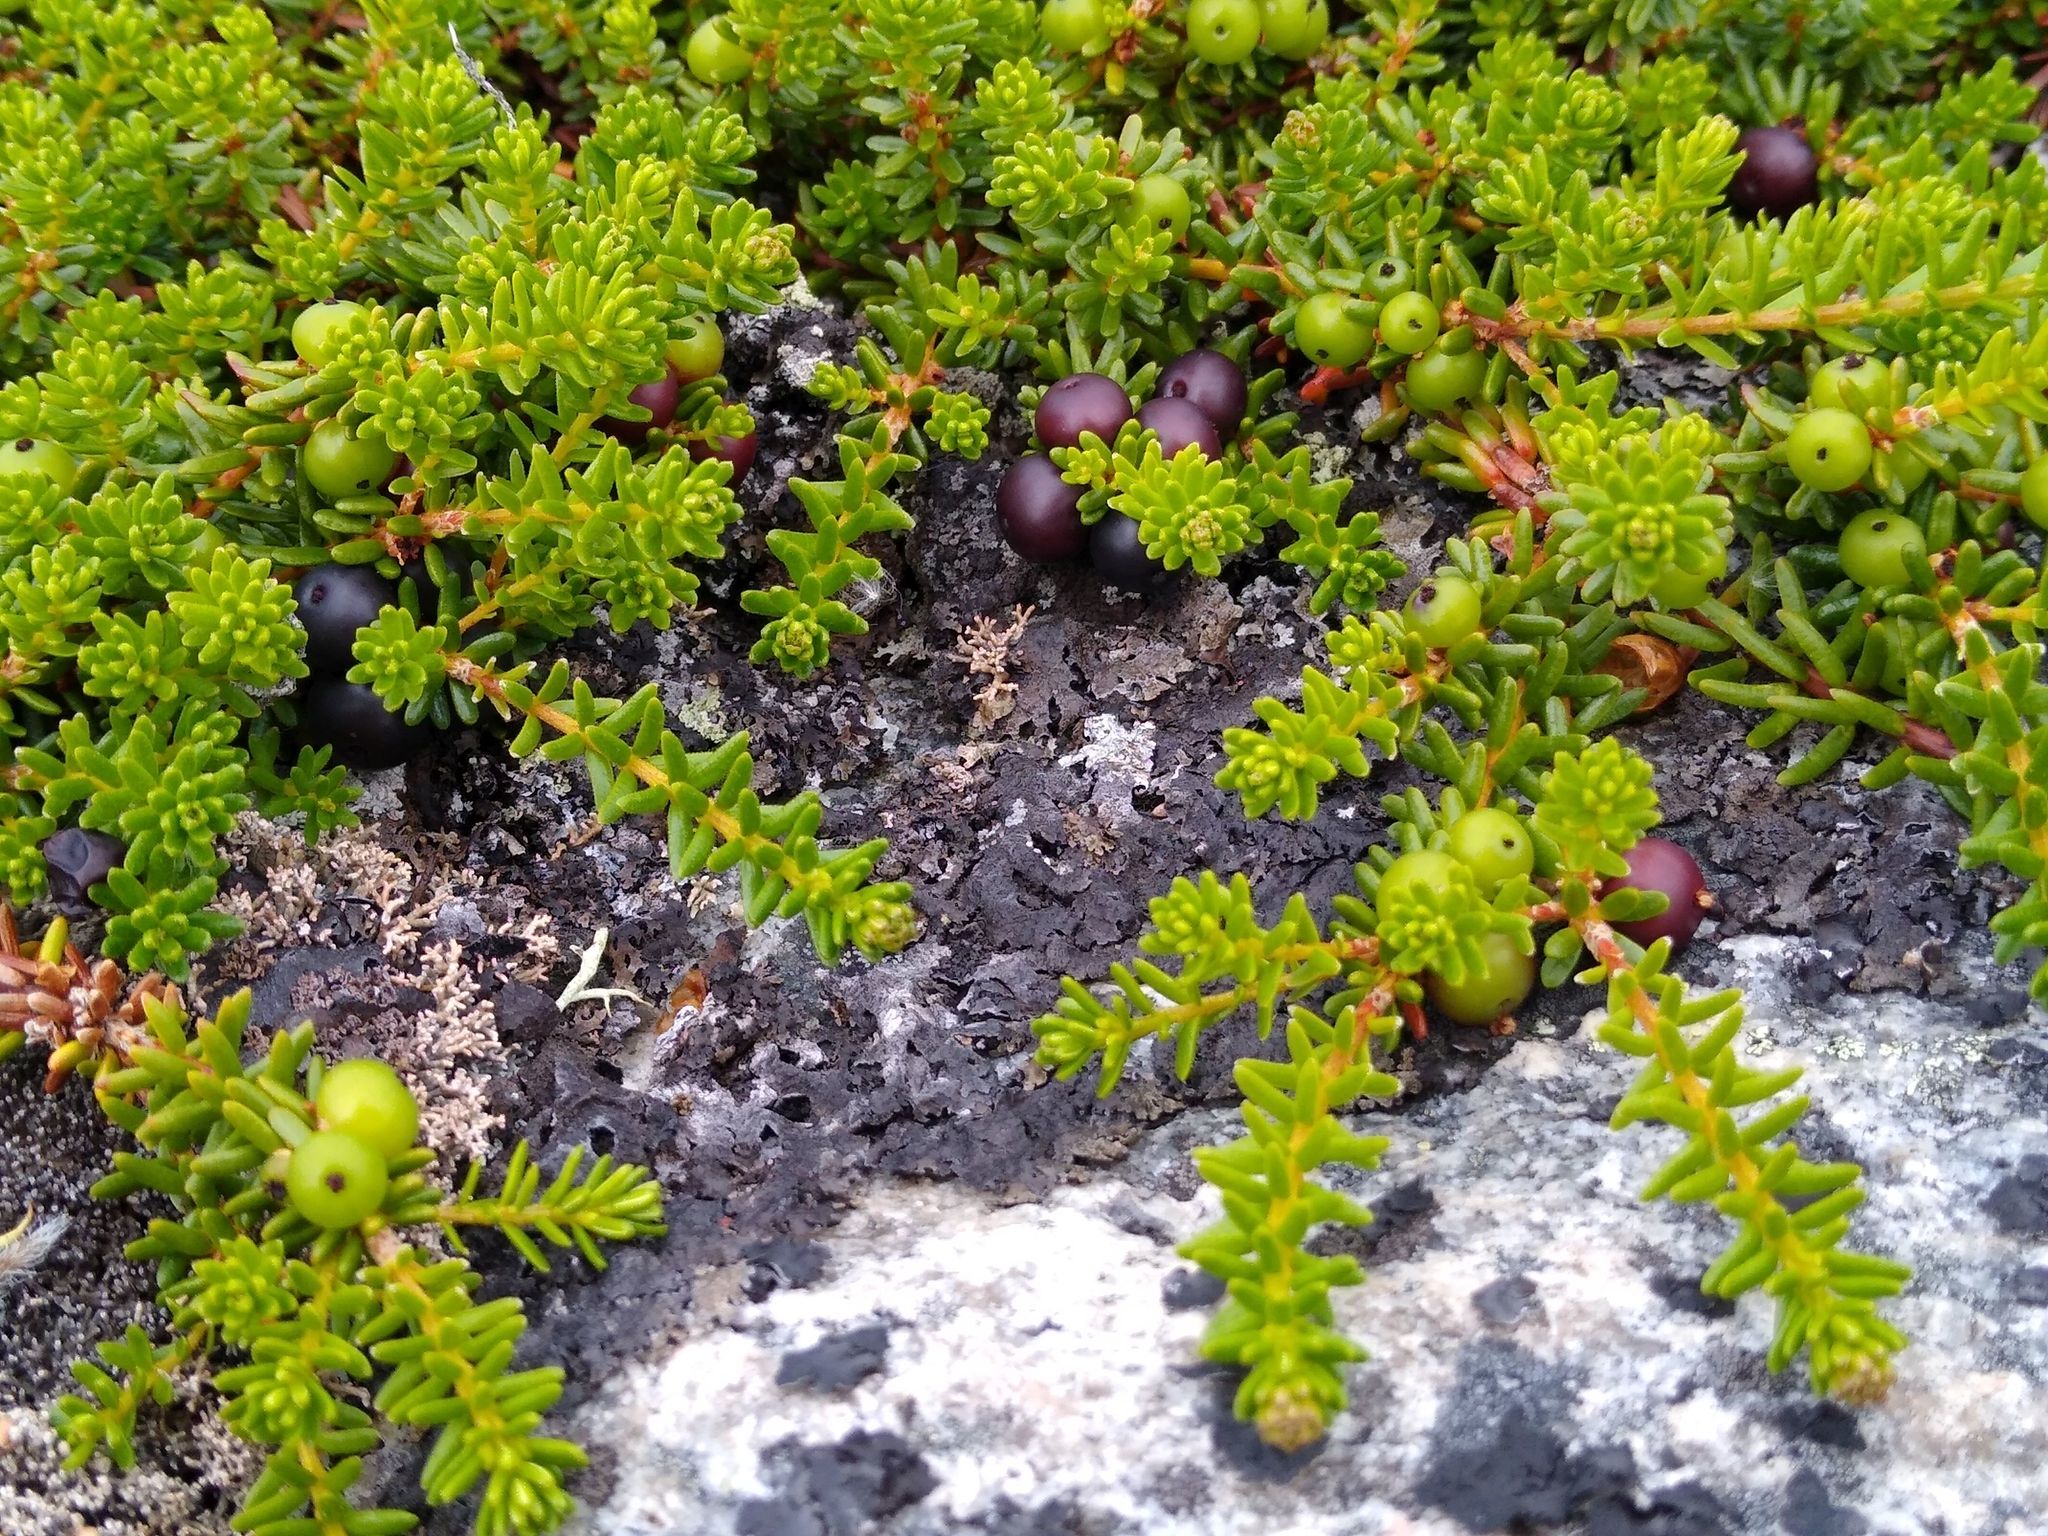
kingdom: Plantae
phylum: Tracheophyta
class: Magnoliopsida
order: Ericales
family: Ericaceae
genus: Empetrum
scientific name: Empetrum nigrum
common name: Black crowberry
